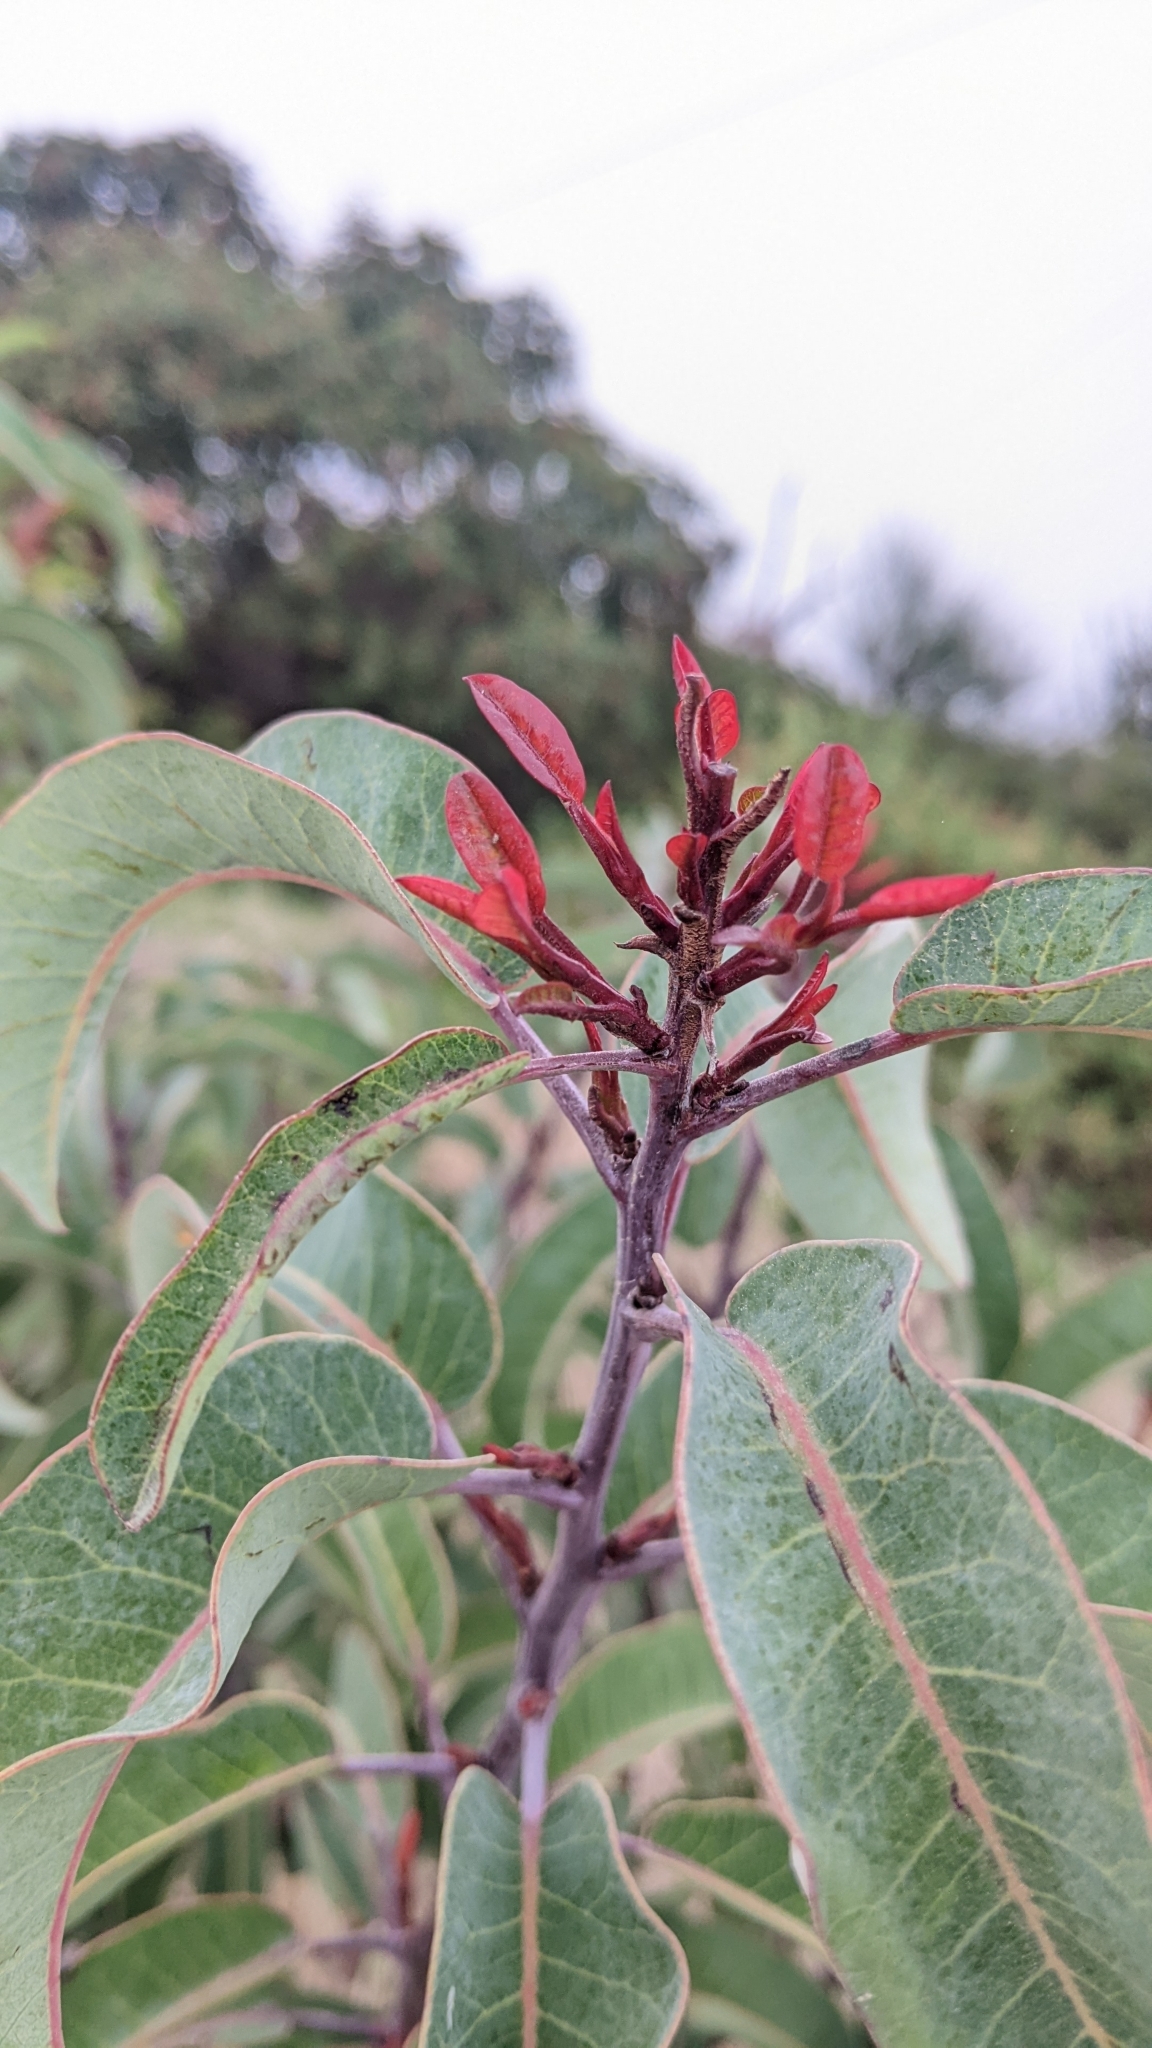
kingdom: Plantae
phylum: Tracheophyta
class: Magnoliopsida
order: Sapindales
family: Anacardiaceae
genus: Malosma
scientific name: Malosma laurina
